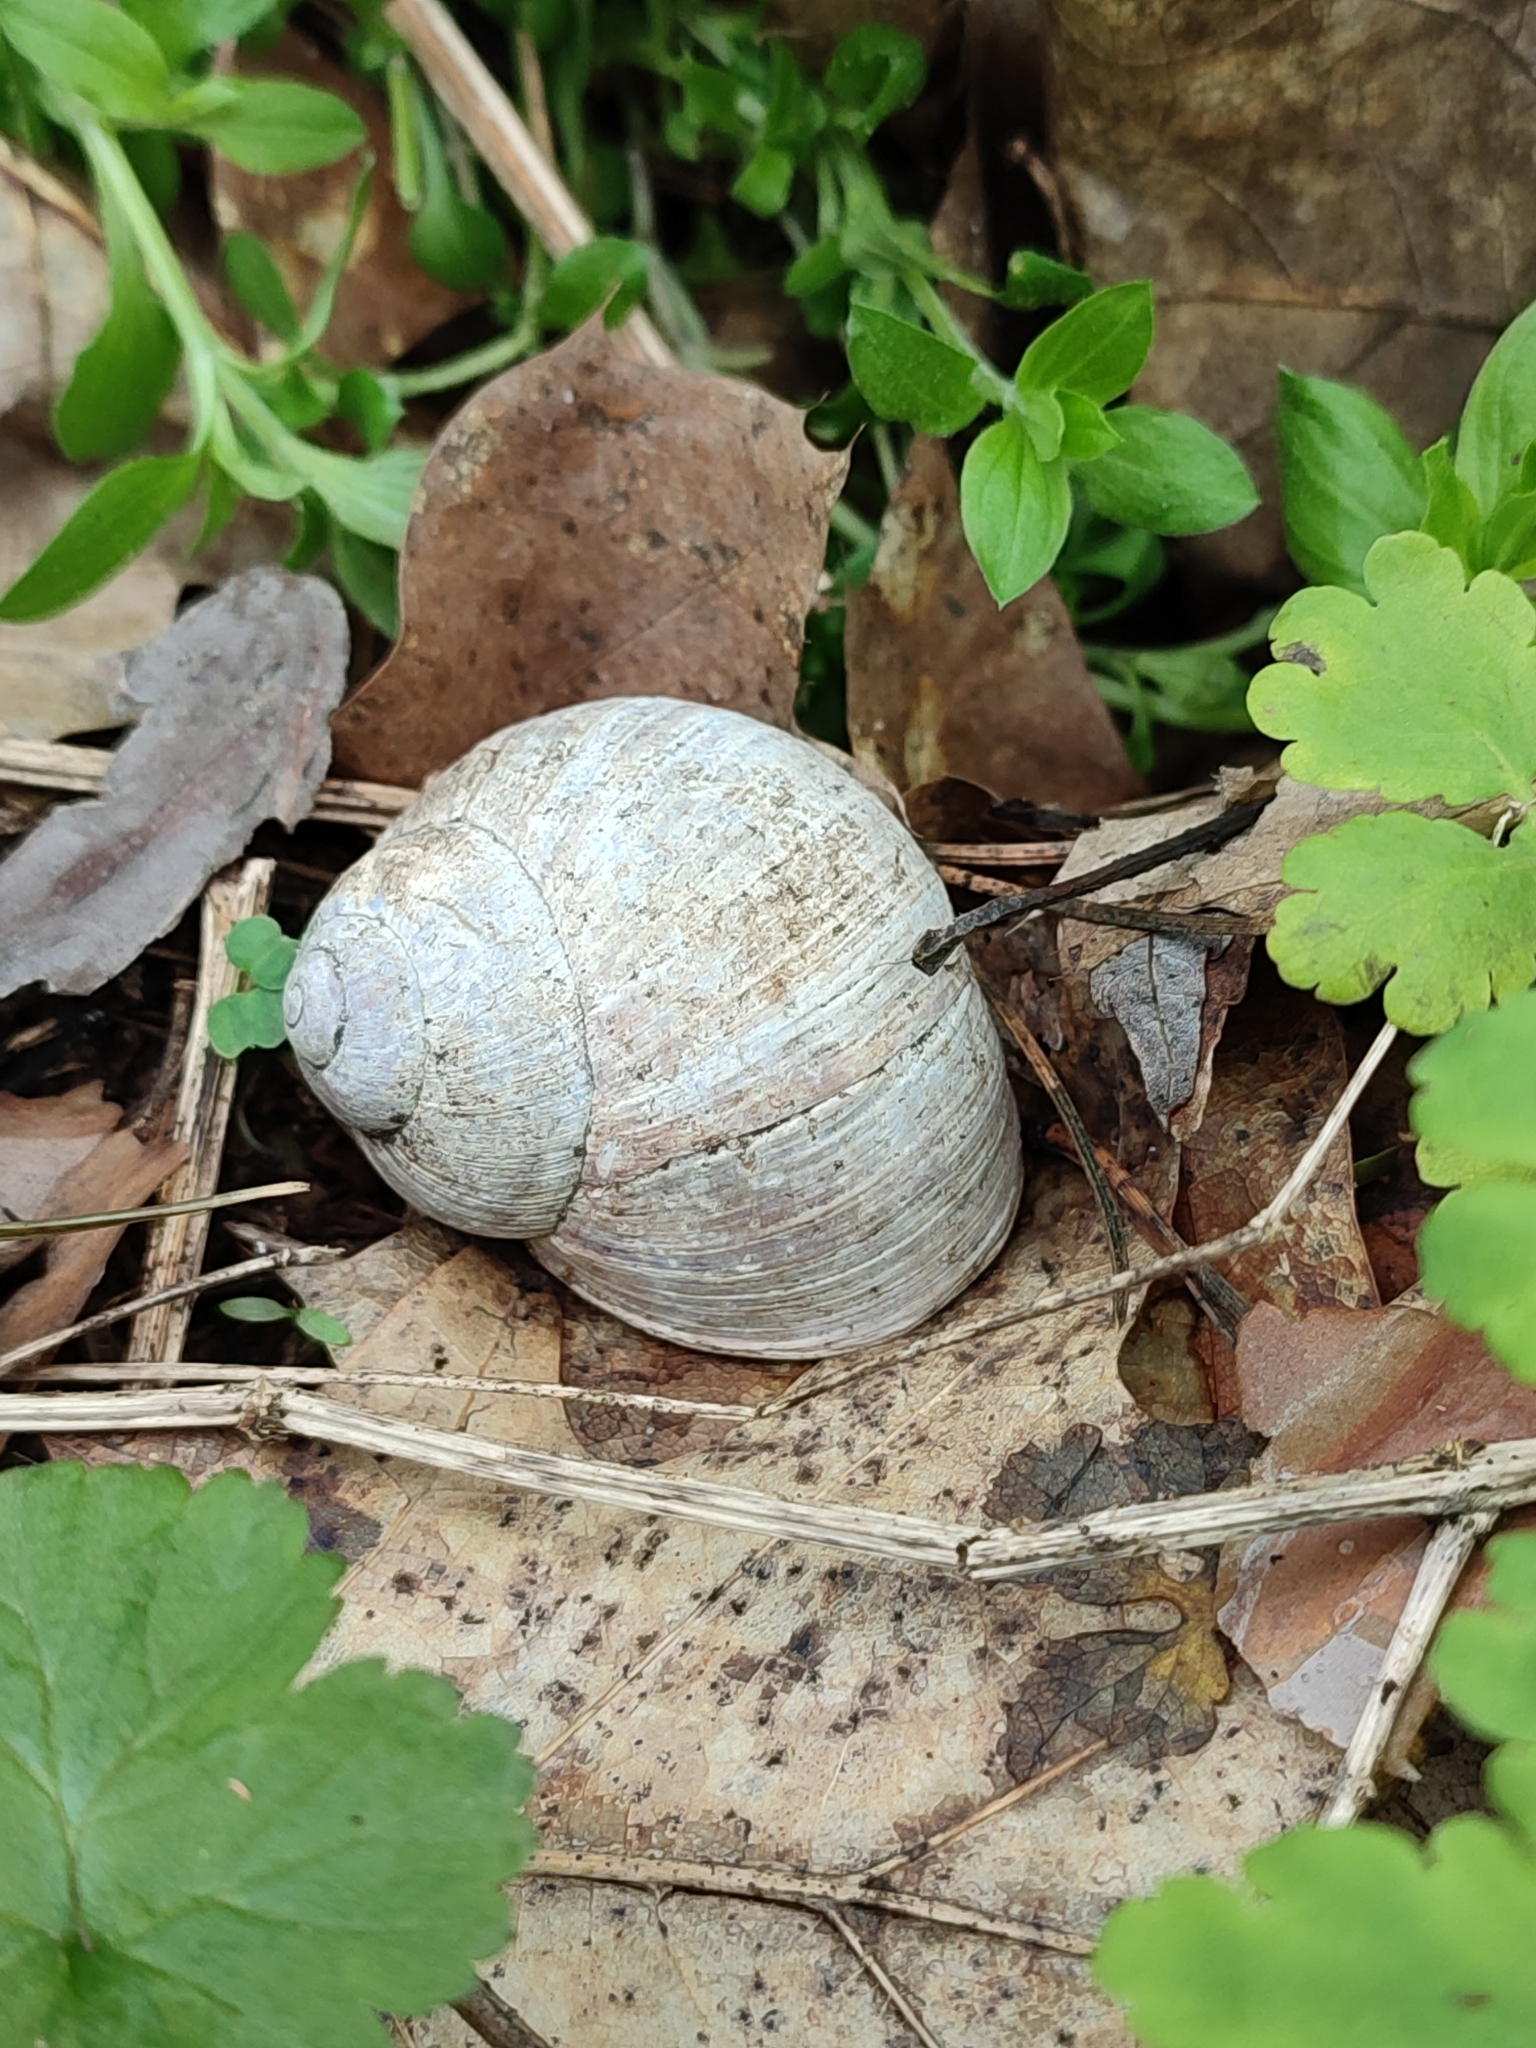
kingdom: Animalia
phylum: Mollusca
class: Gastropoda
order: Stylommatophora
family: Helicidae
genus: Helix
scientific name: Helix pomatia
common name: Roman snail
